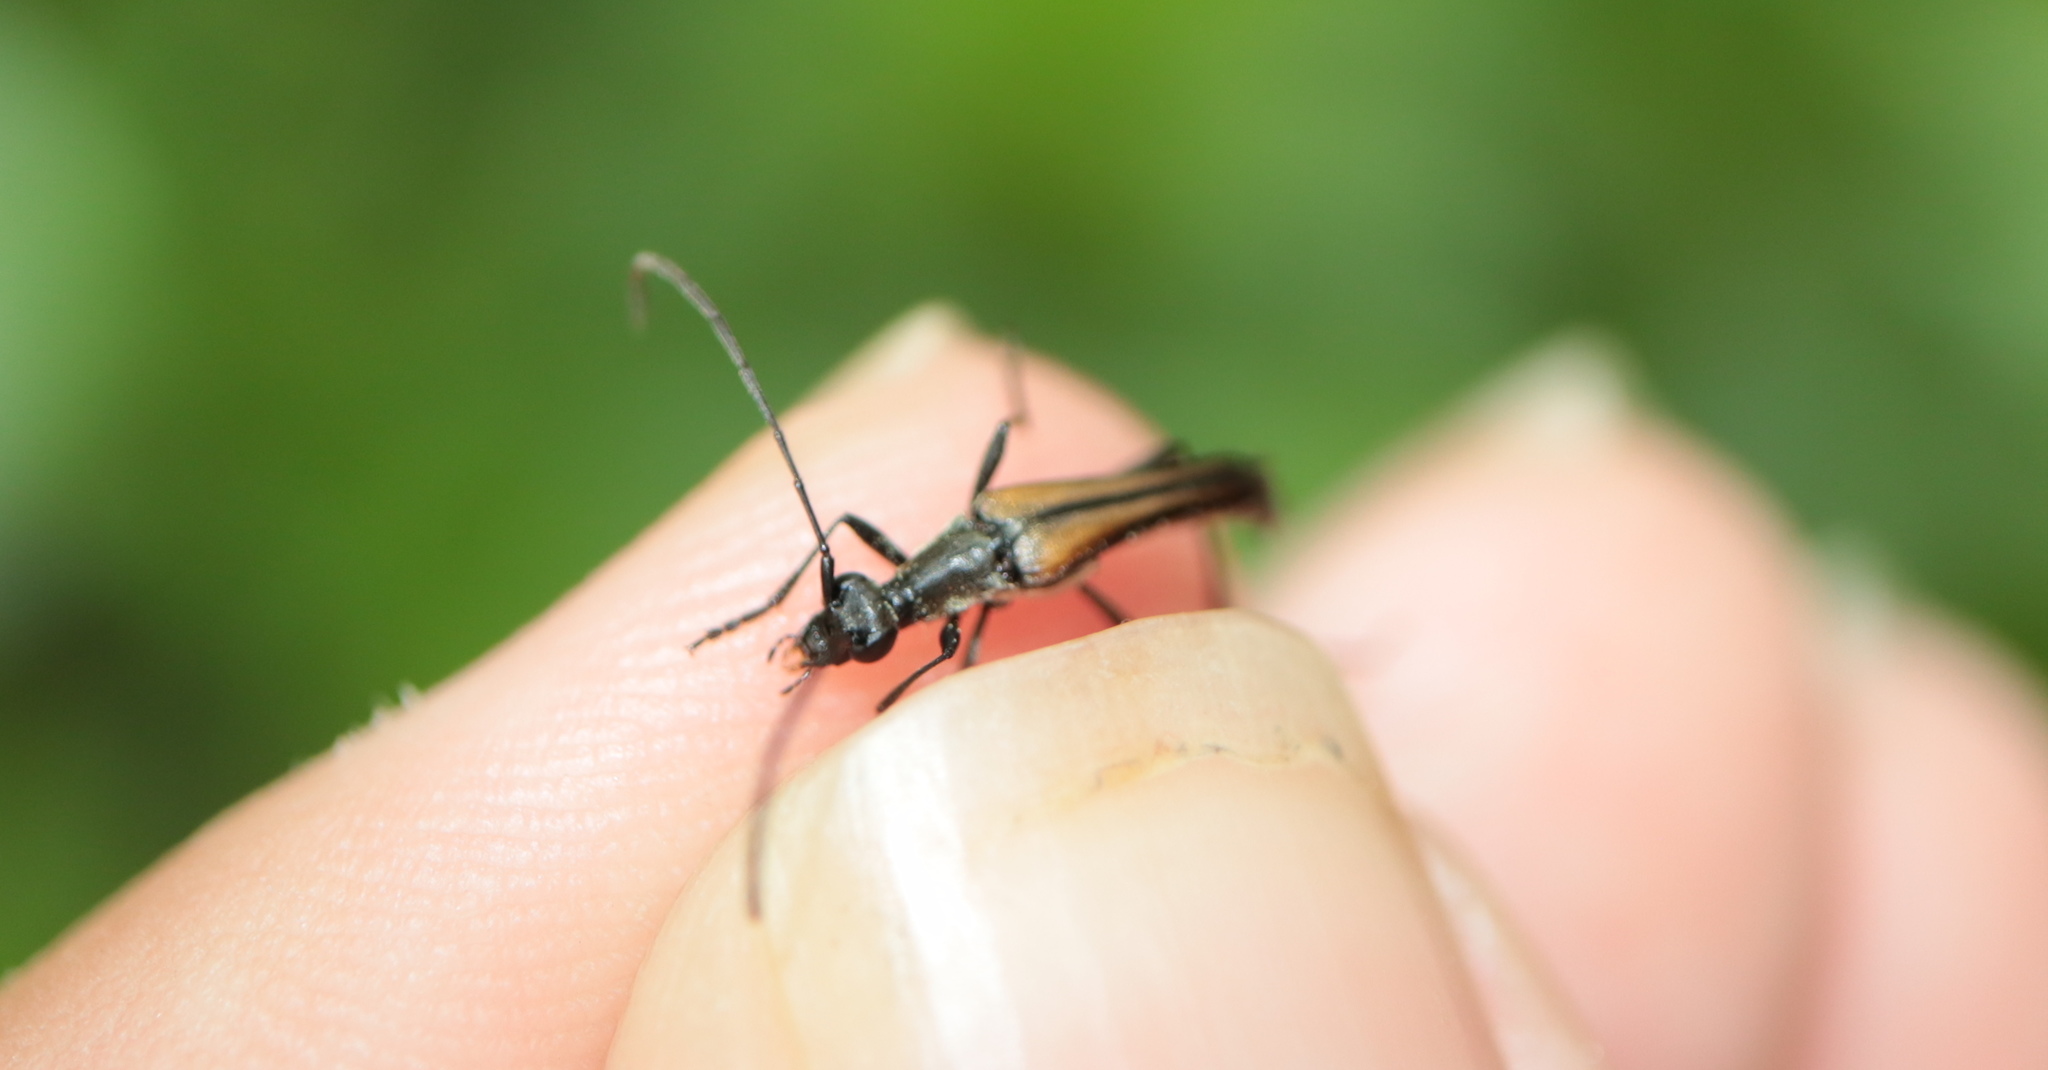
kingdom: Animalia
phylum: Arthropoda
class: Insecta
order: Coleoptera
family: Cerambycidae
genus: Strangalia
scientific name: Strangalia acuminata
